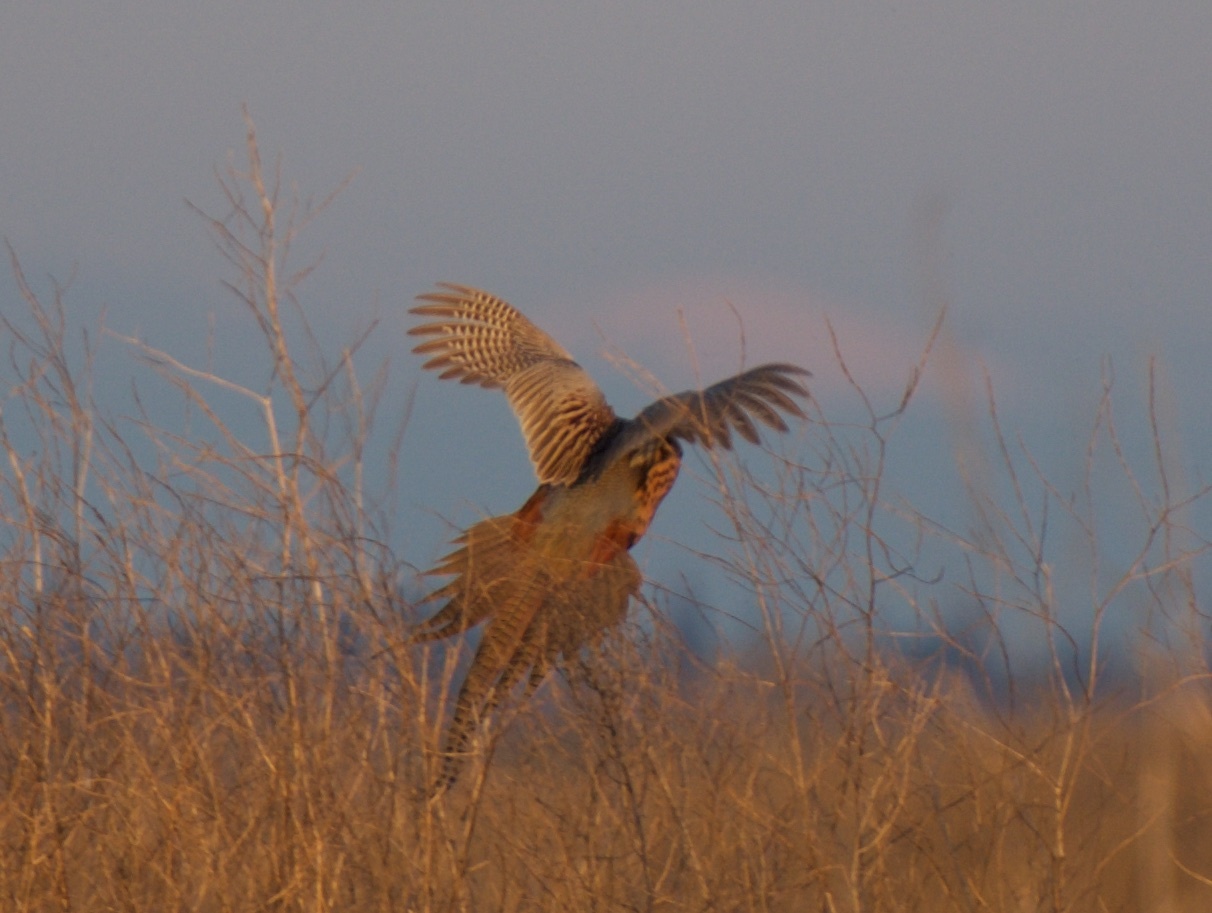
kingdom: Animalia
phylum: Chordata
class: Aves
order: Galliformes
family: Phasianidae
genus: Phasianus
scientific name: Phasianus colchicus
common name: Common pheasant
